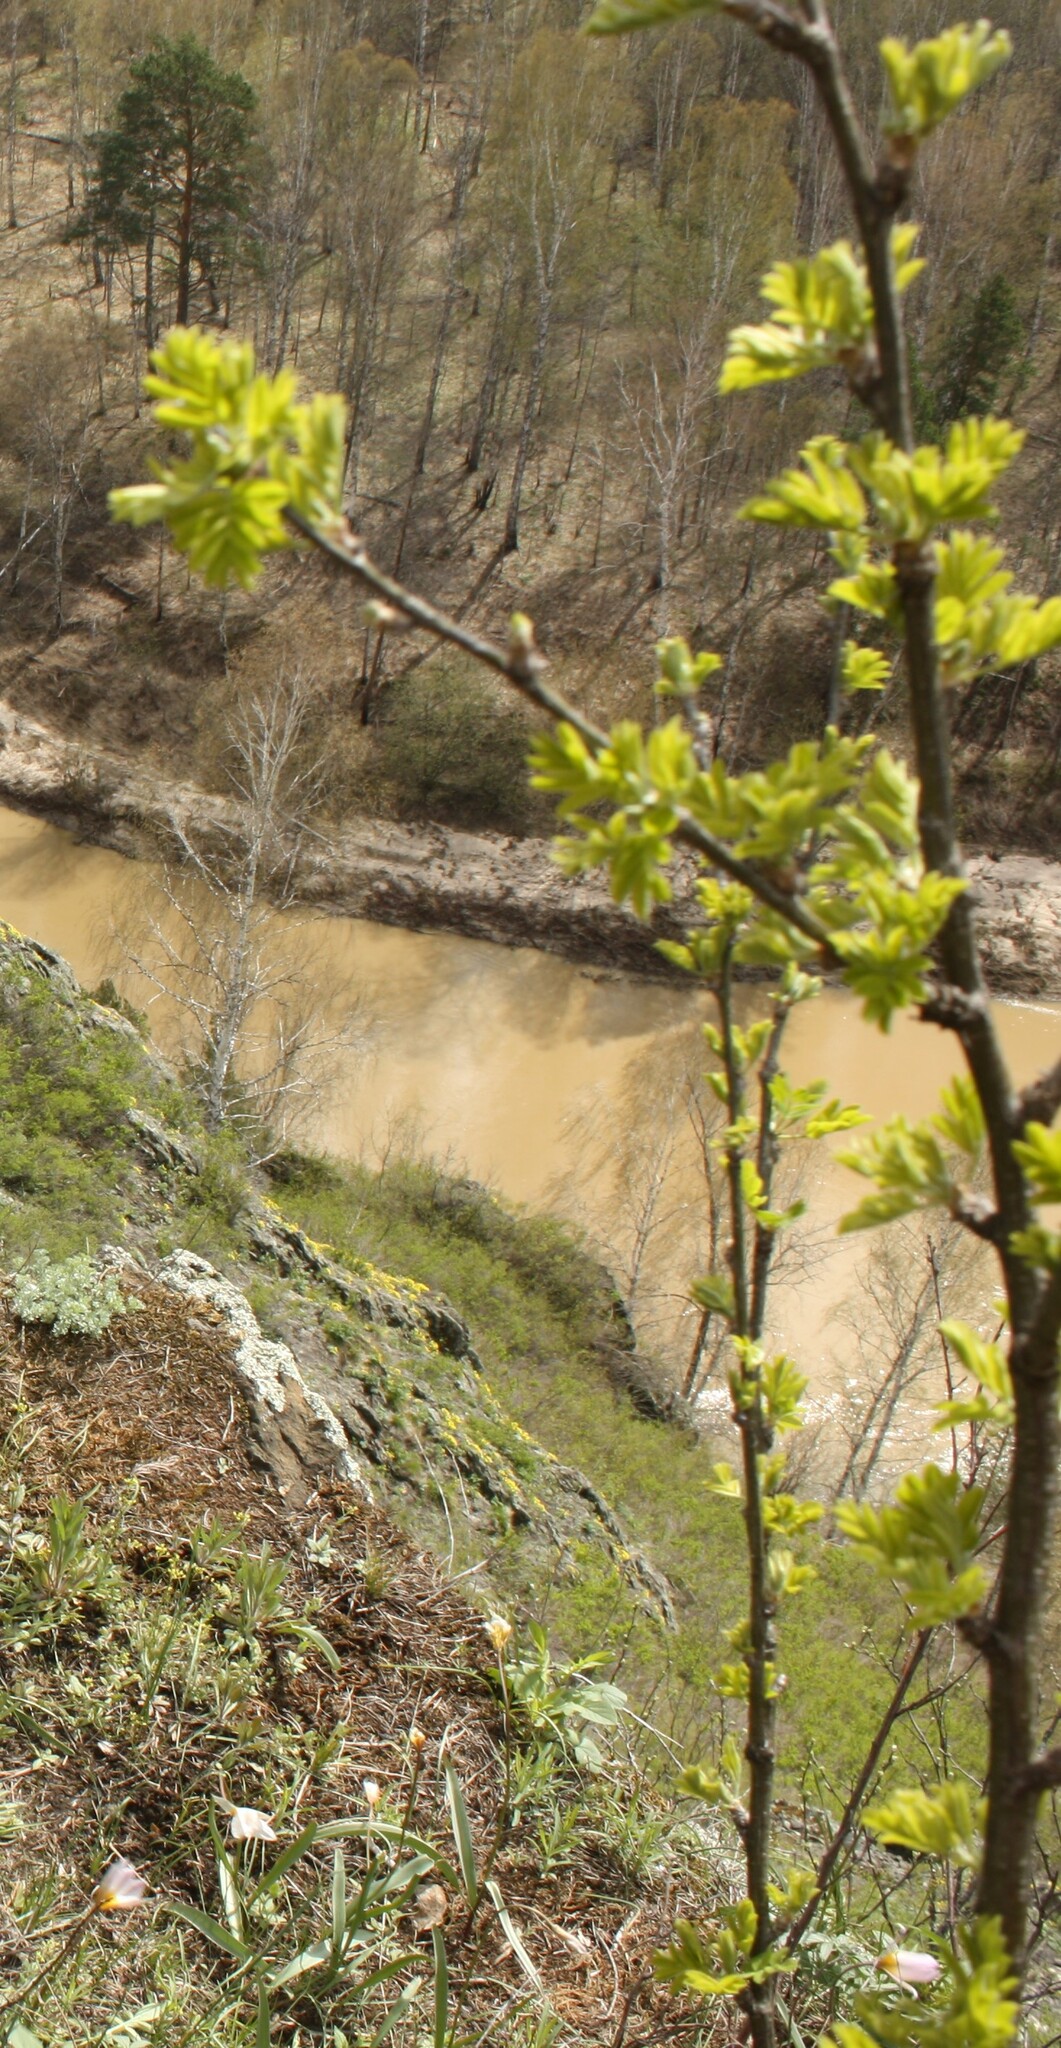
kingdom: Plantae
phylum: Tracheophyta
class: Magnoliopsida
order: Fabales
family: Fabaceae
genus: Caragana
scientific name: Caragana arborescens
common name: Siberian peashrub
